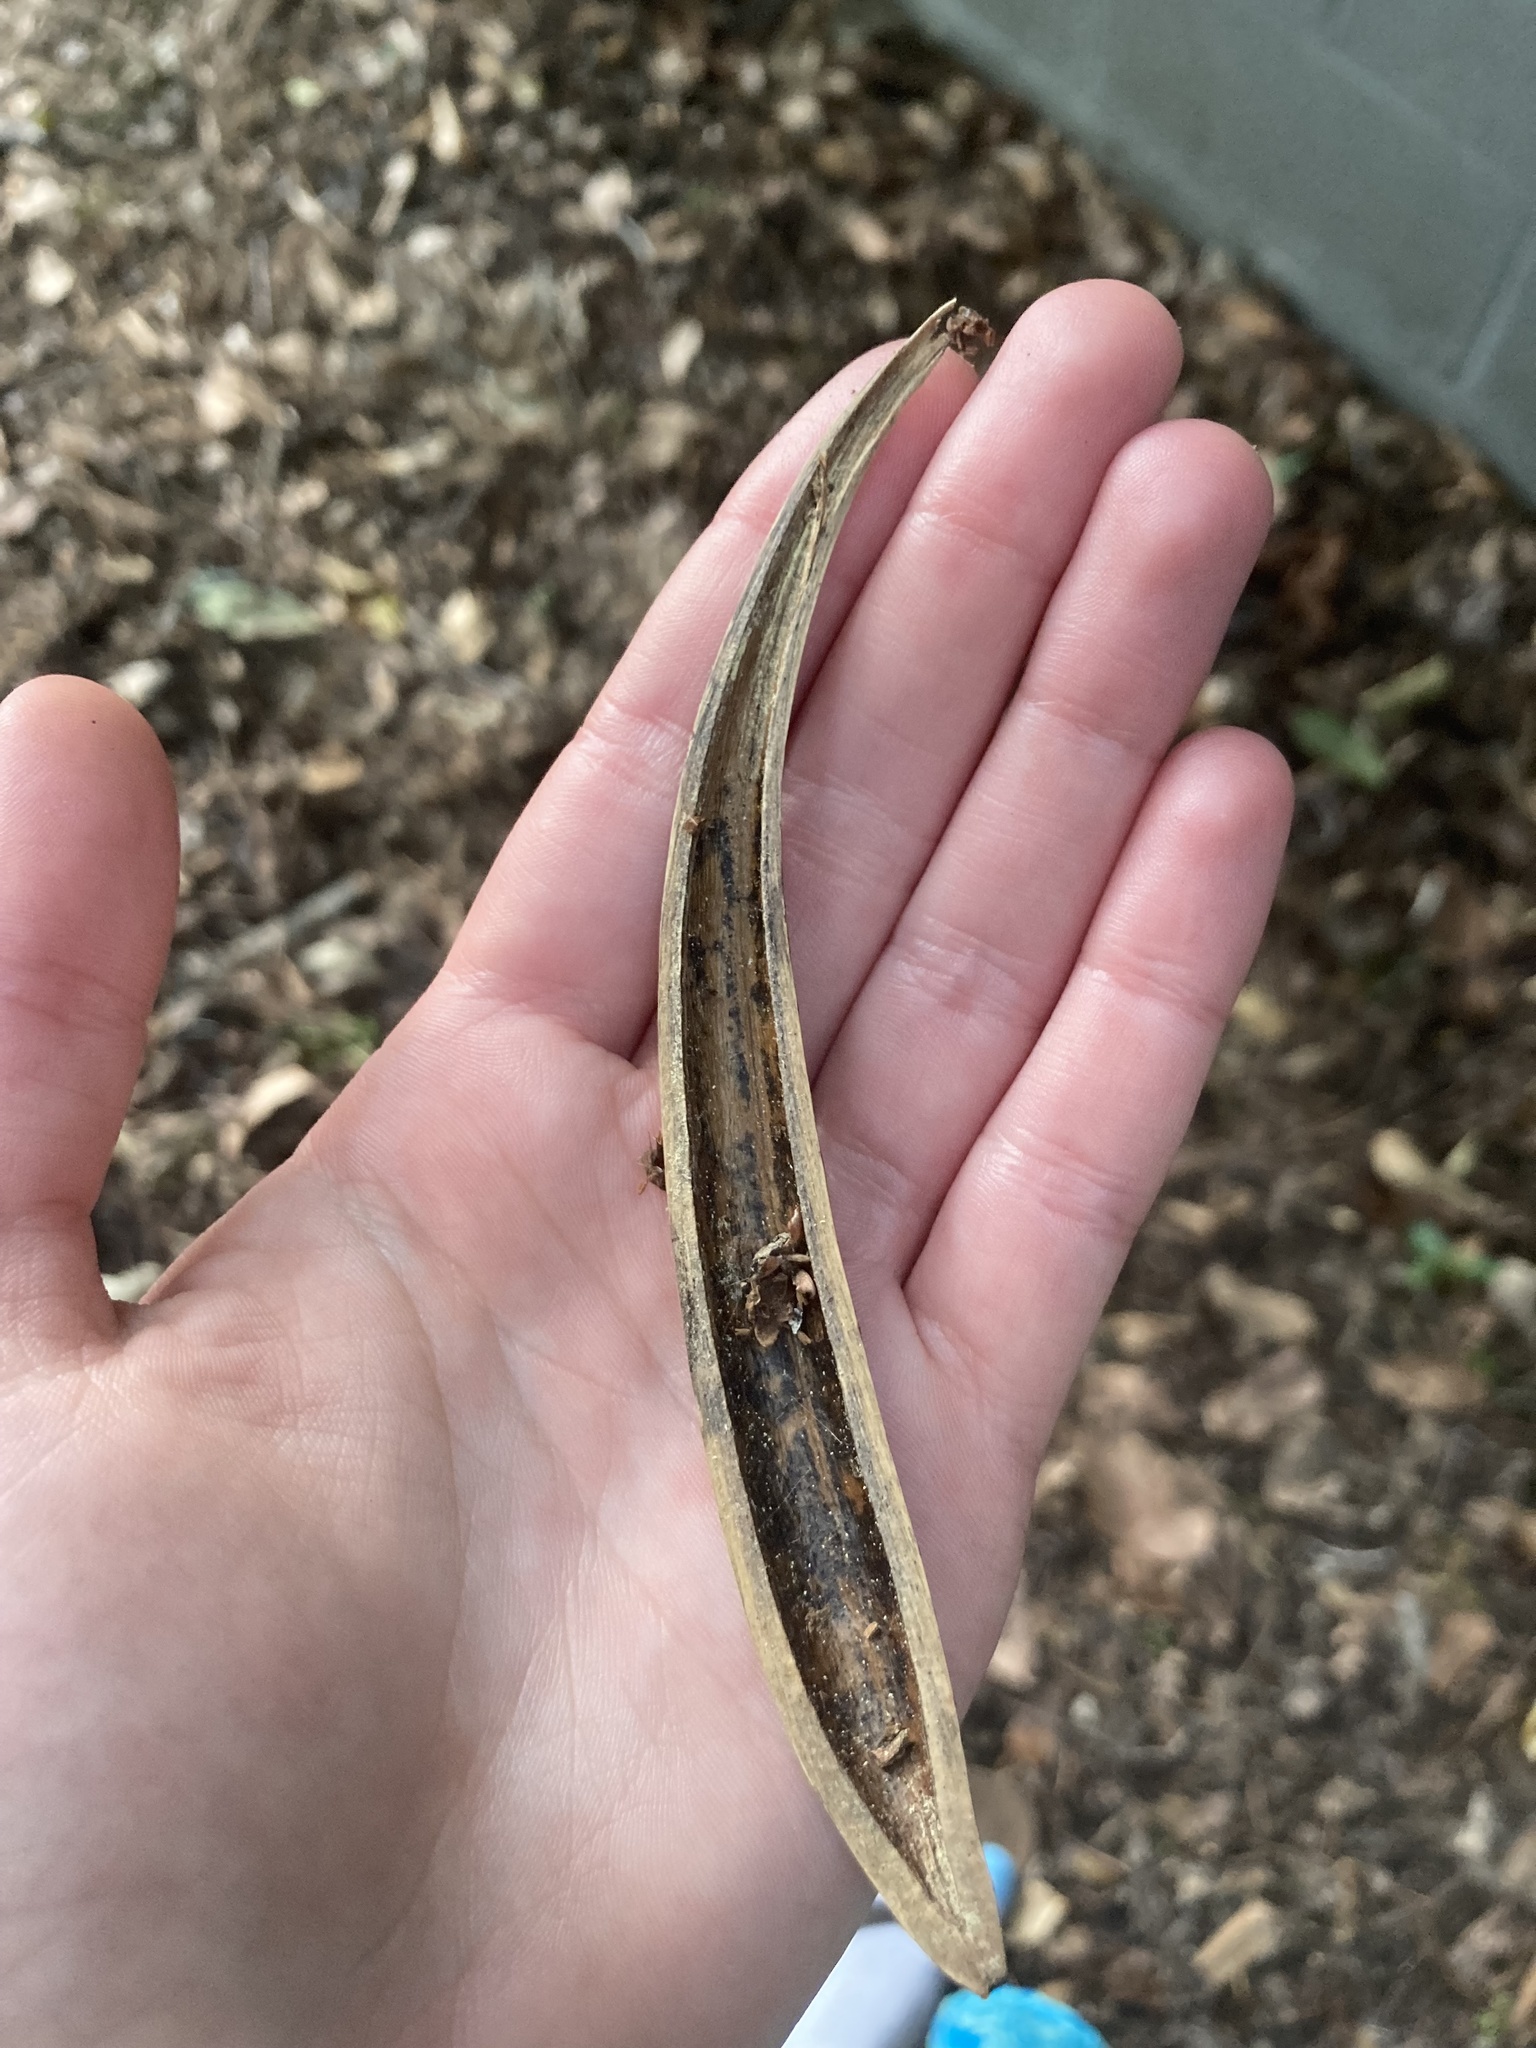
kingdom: Plantae
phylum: Tracheophyta
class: Magnoliopsida
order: Lamiales
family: Bignoniaceae
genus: Campsis
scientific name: Campsis radicans
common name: Trumpet-creeper
